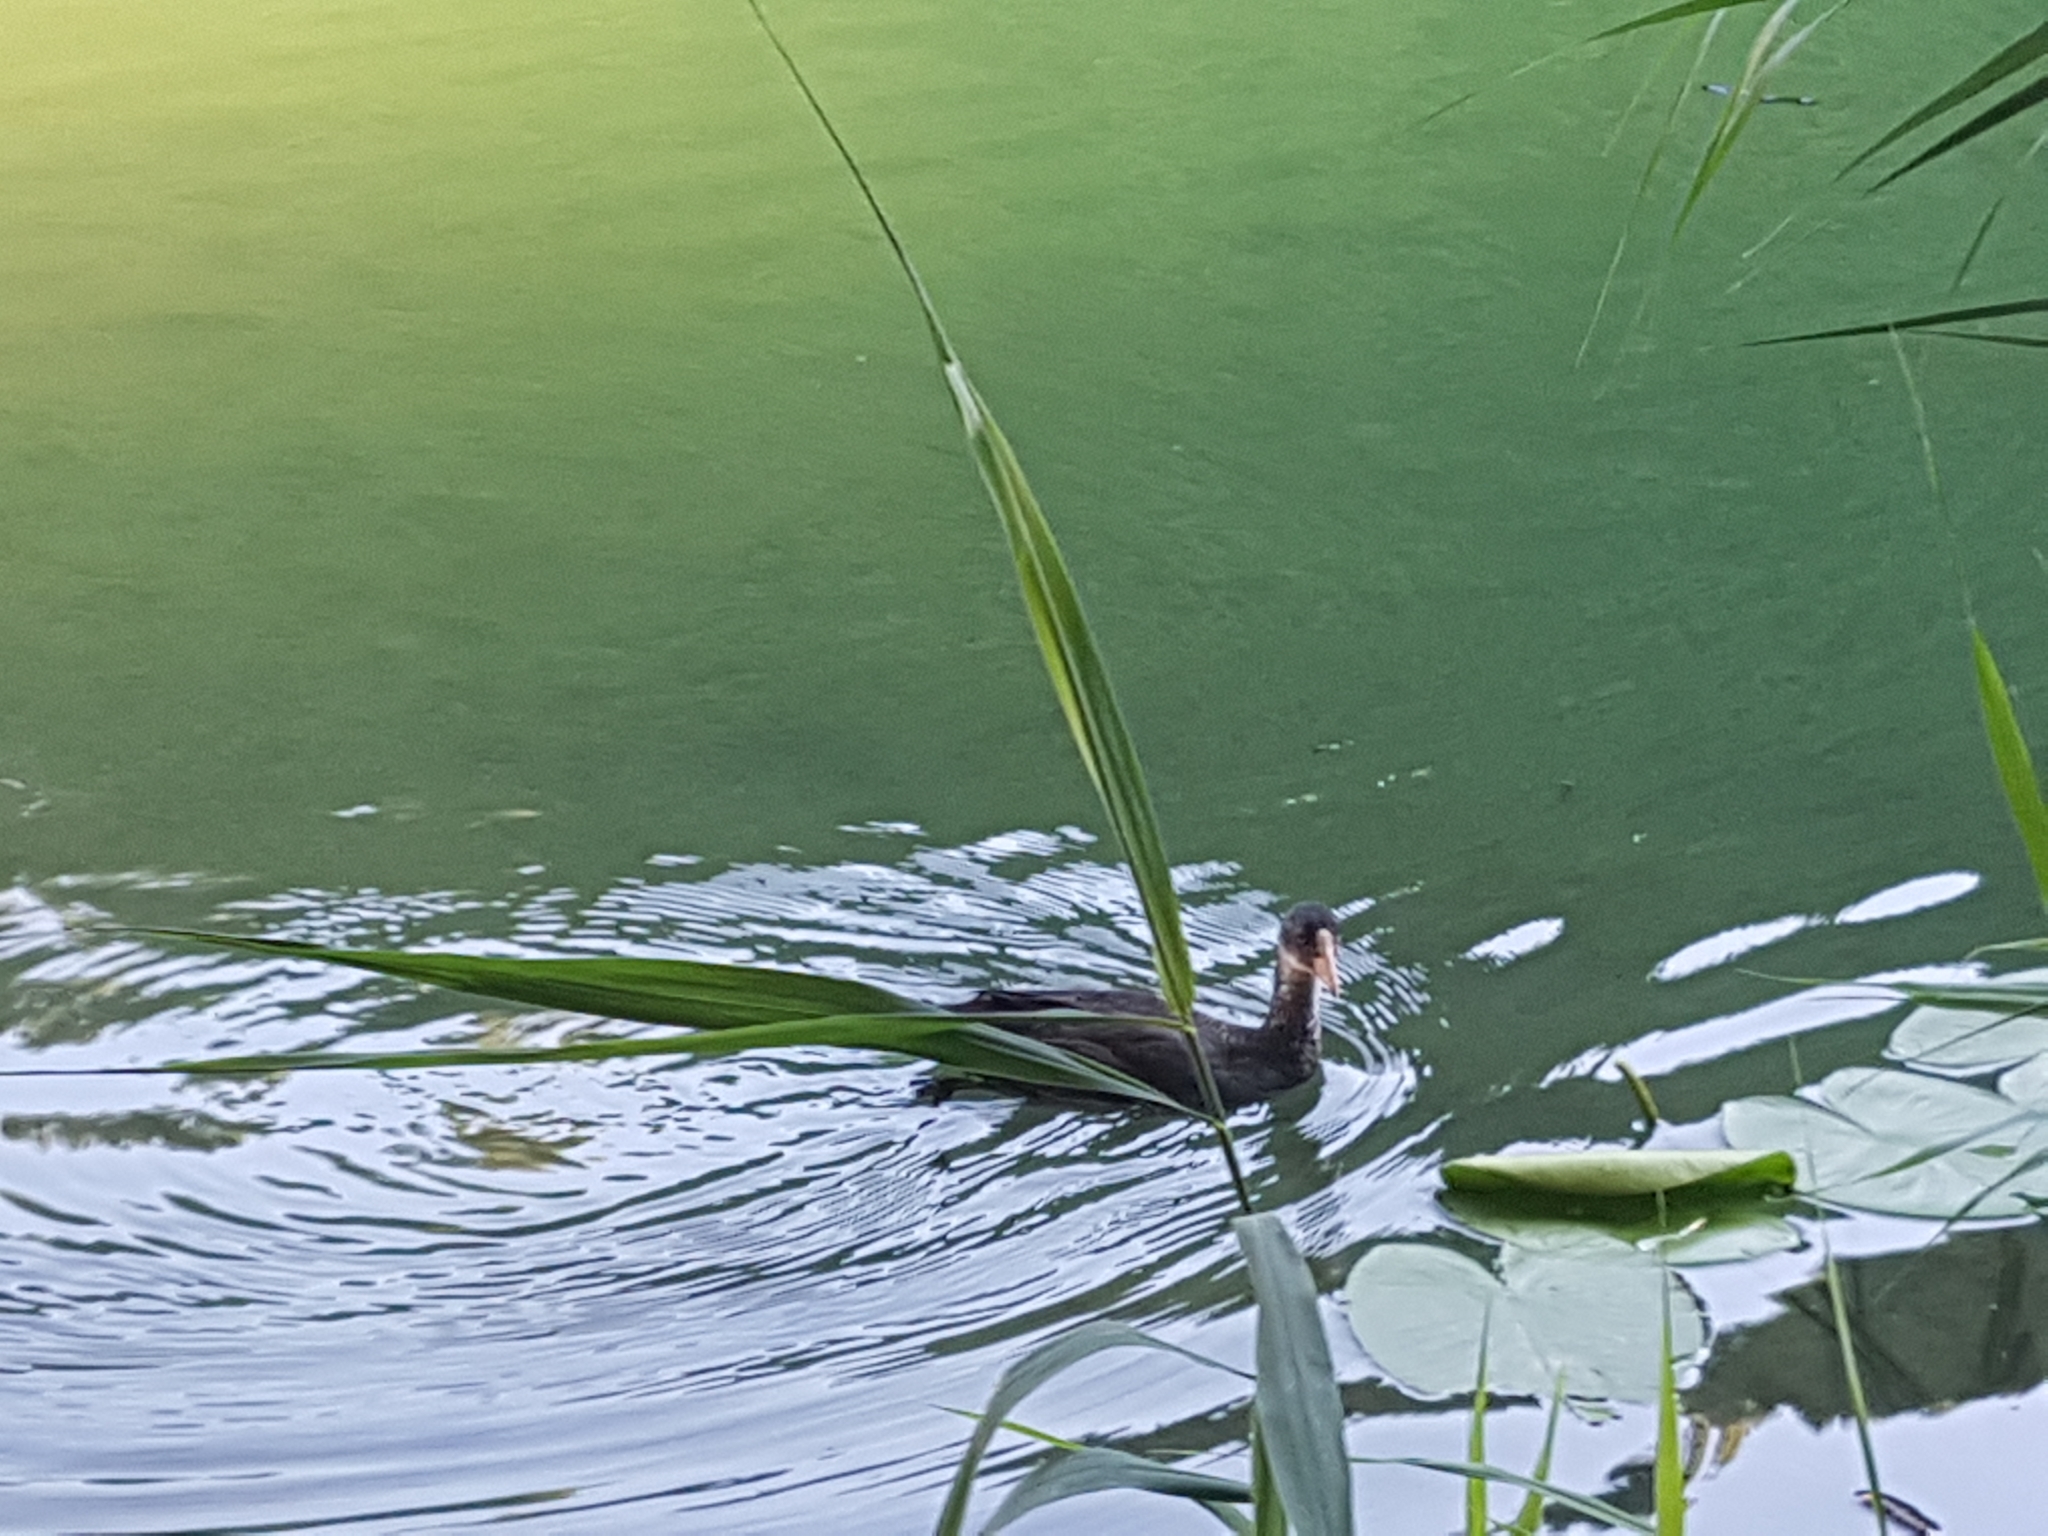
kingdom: Animalia
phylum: Chordata
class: Aves
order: Gruiformes
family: Rallidae
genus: Fulica
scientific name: Fulica atra
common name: Eurasian coot
